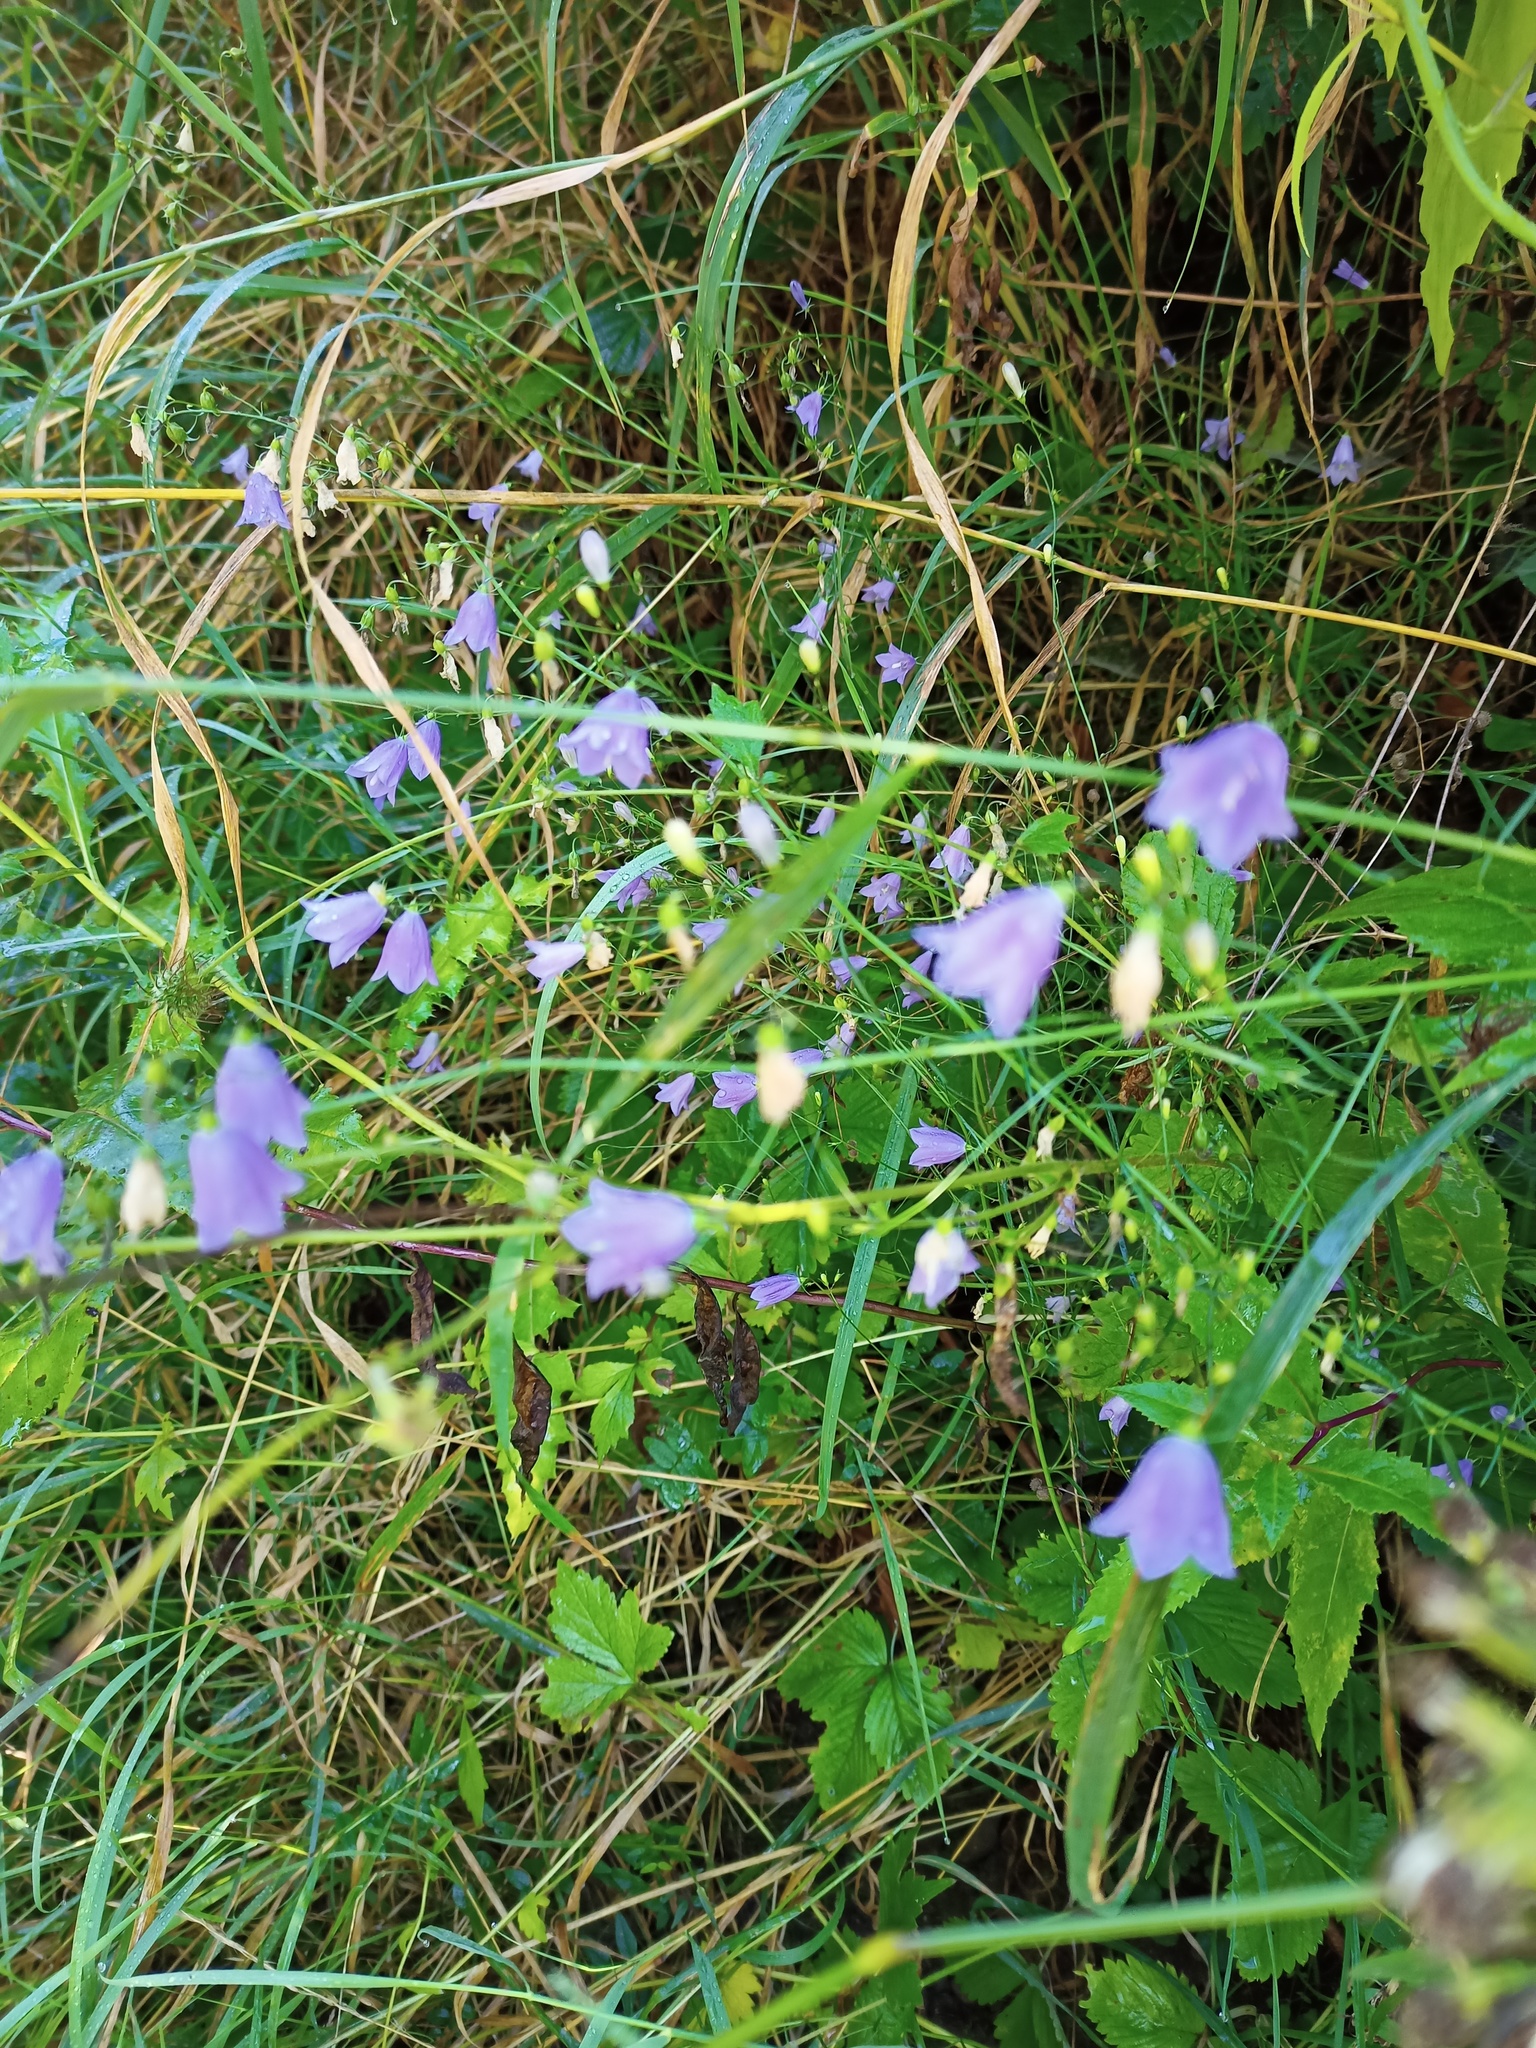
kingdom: Plantae
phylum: Tracheophyta
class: Magnoliopsida
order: Asterales
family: Campanulaceae
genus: Campanula
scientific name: Campanula rotundifolia
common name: Harebell
